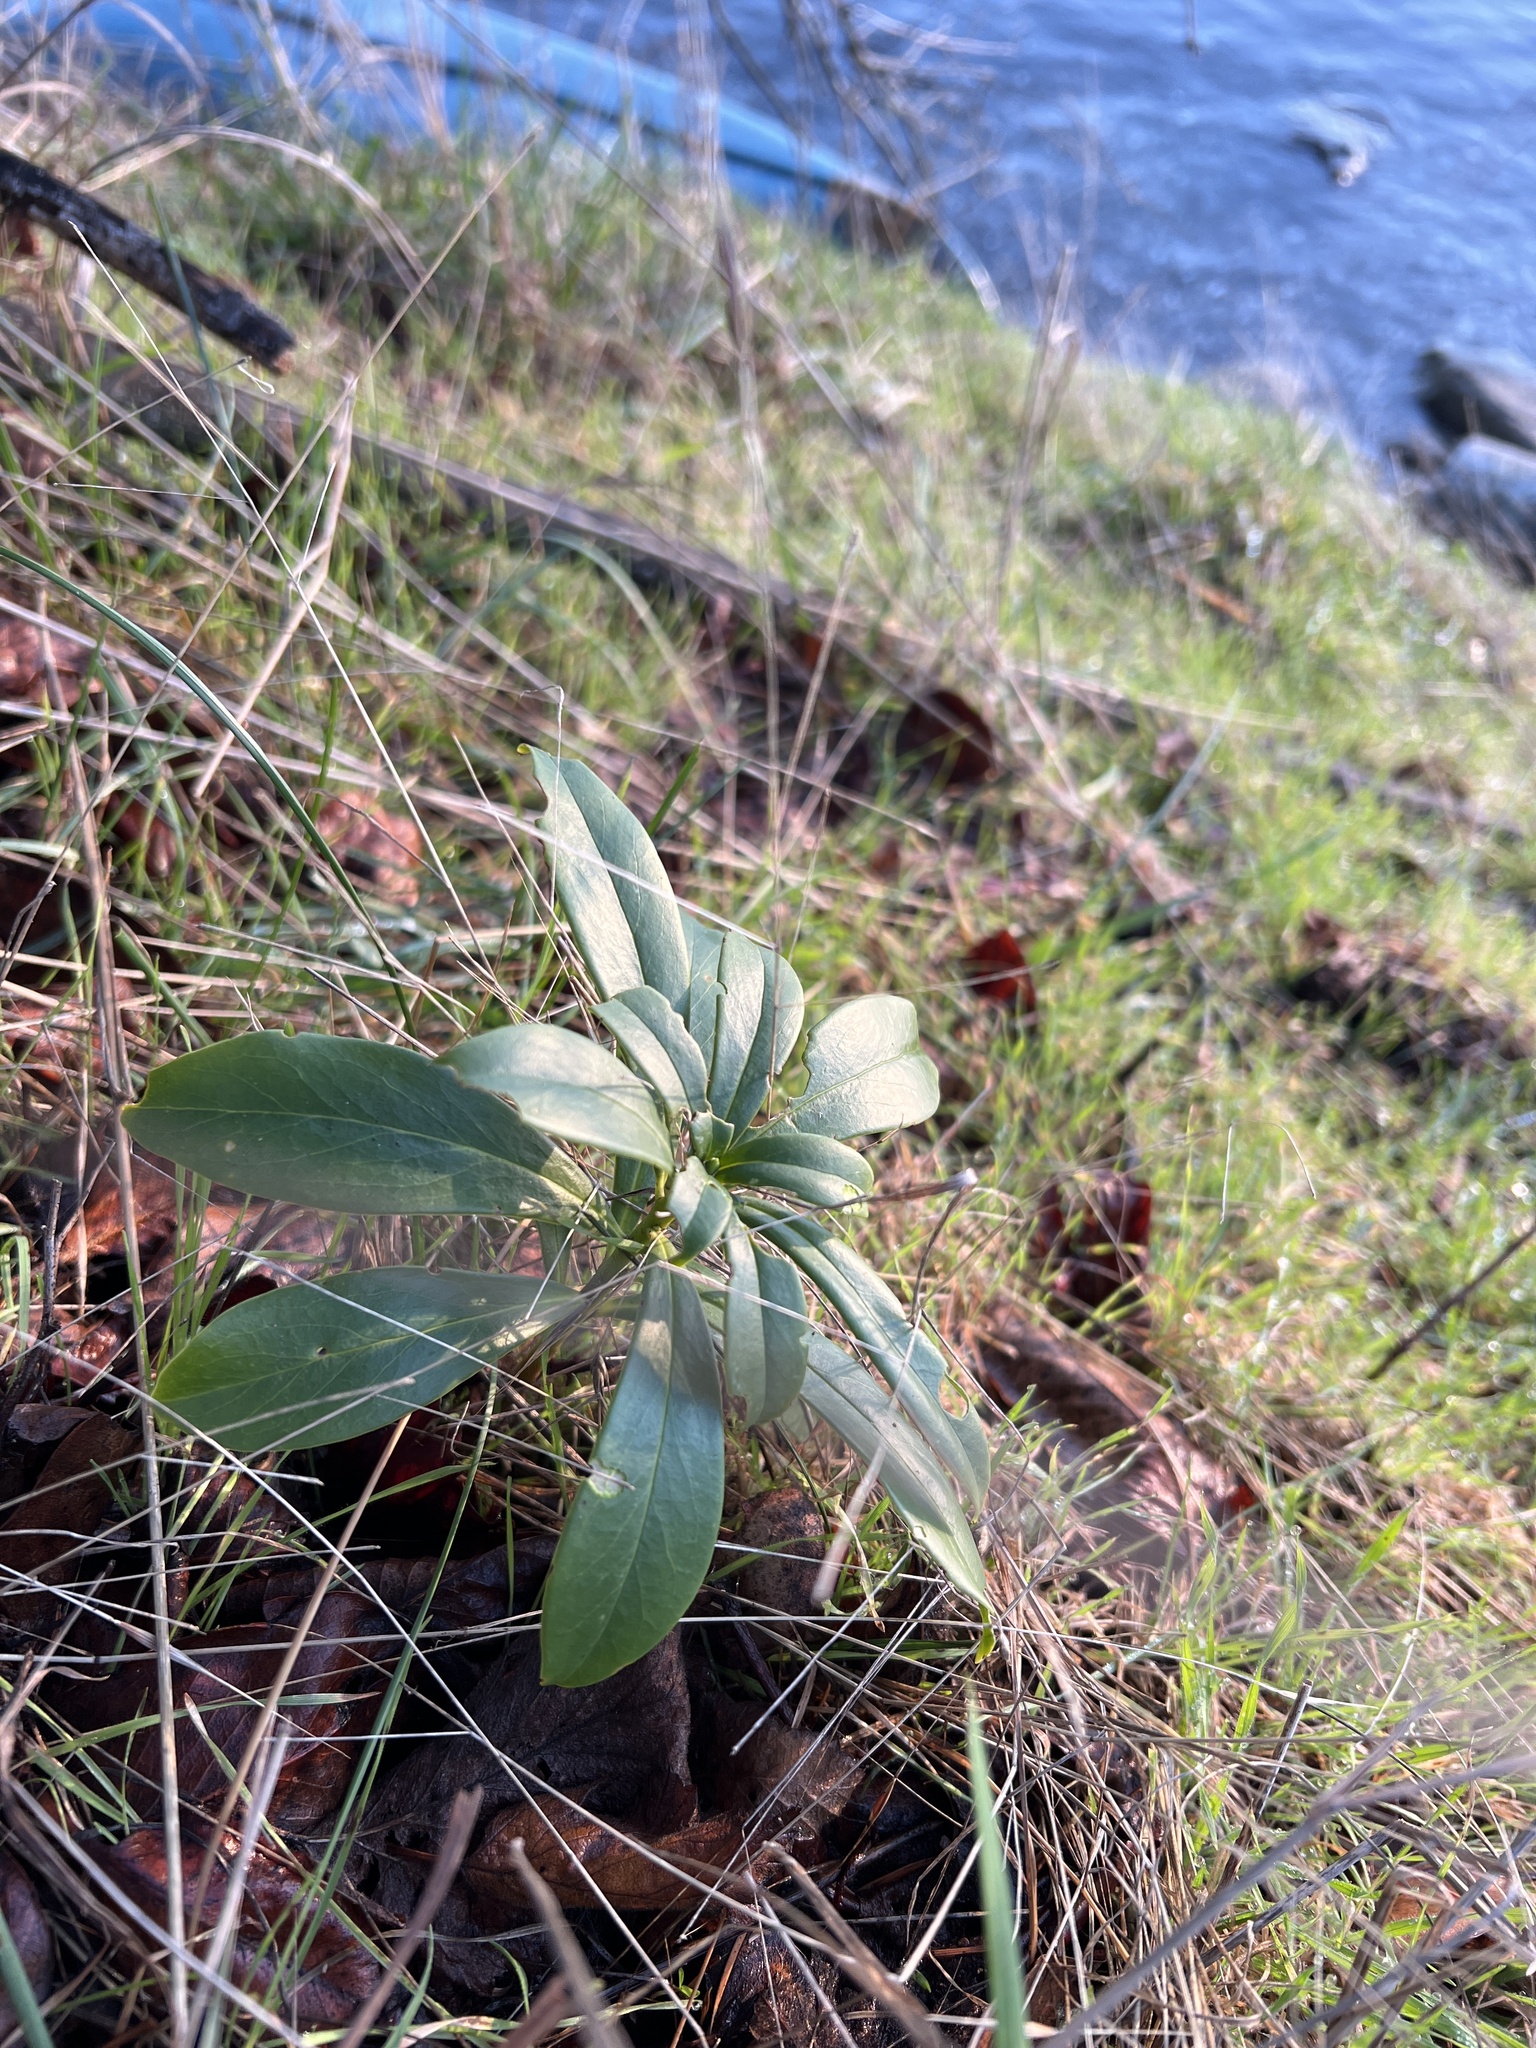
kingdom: Plantae
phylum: Tracheophyta
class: Magnoliopsida
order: Malvales
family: Thymelaeaceae
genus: Daphne
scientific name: Daphne laureola
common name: Spurge-laurel
